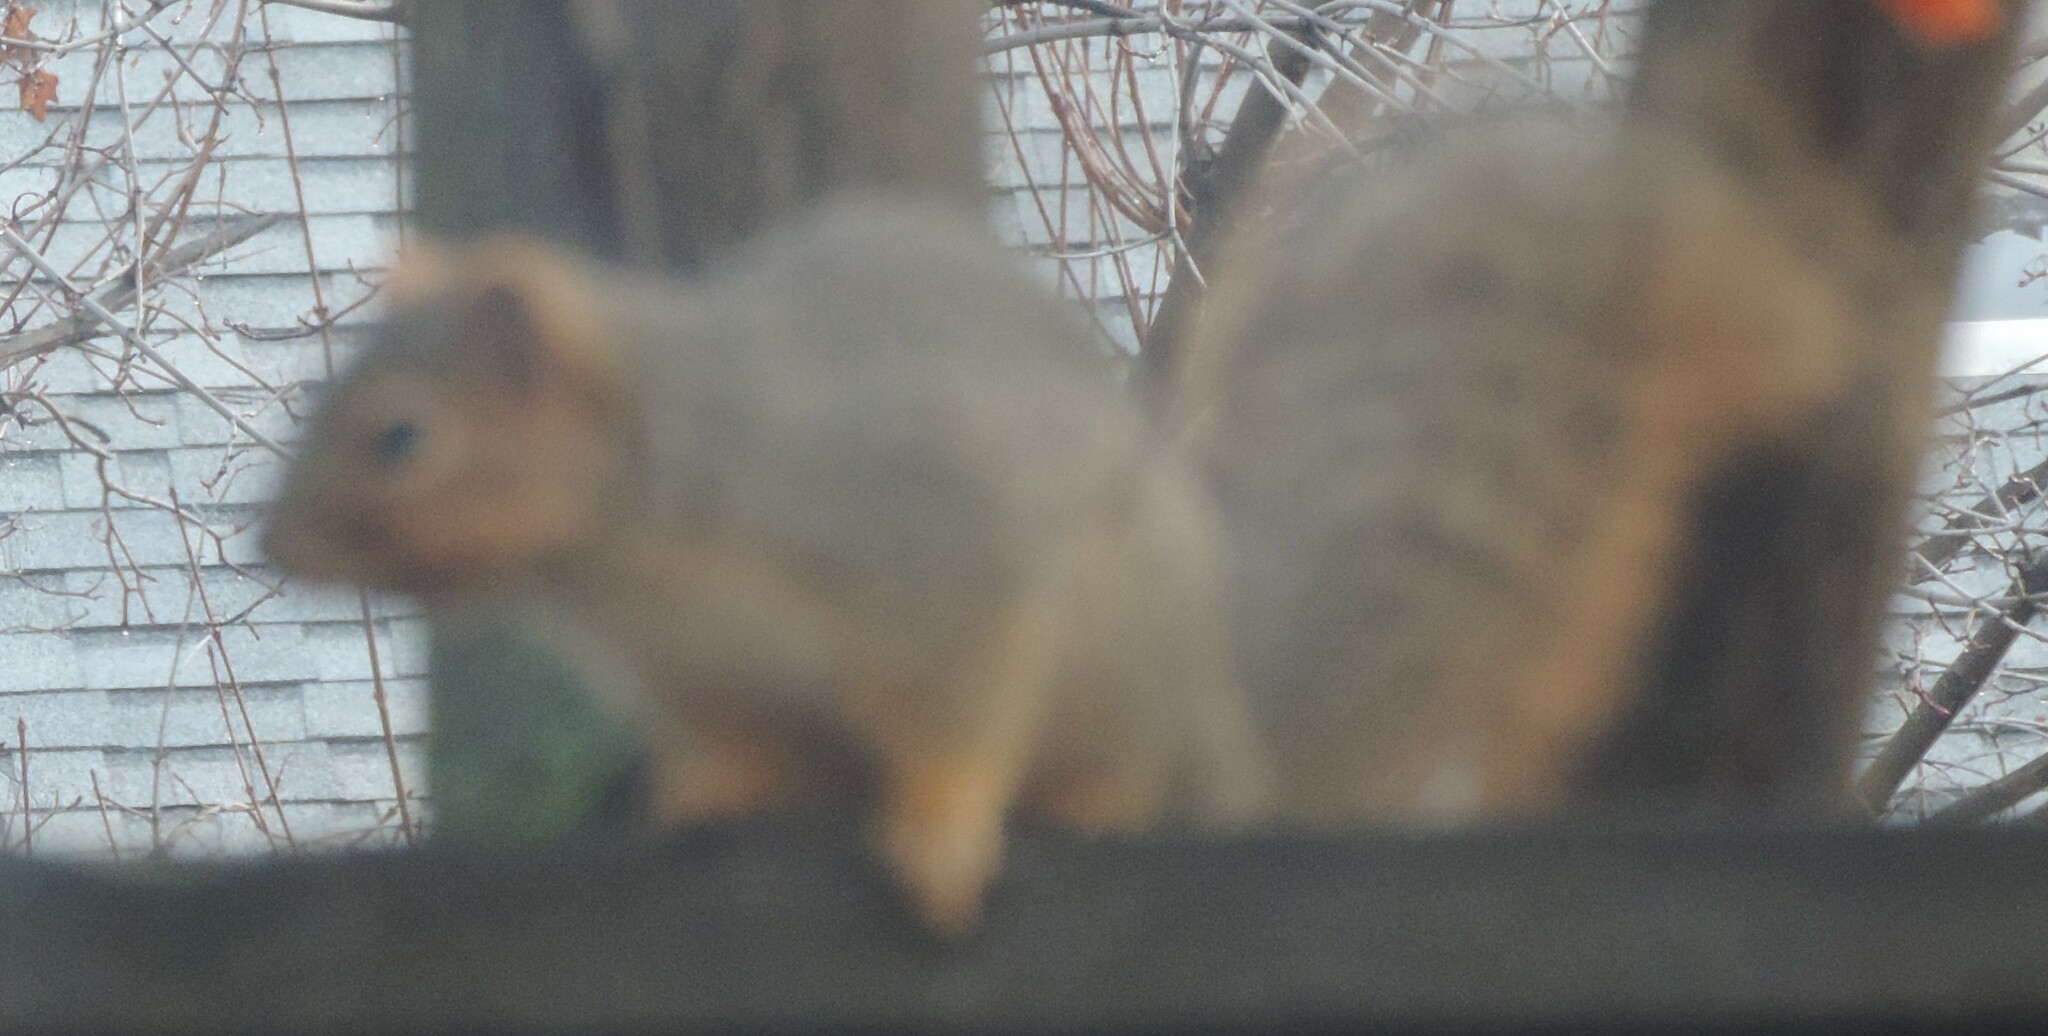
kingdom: Animalia
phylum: Chordata
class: Mammalia
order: Rodentia
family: Sciuridae
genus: Sciurus
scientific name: Sciurus niger
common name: Fox squirrel
